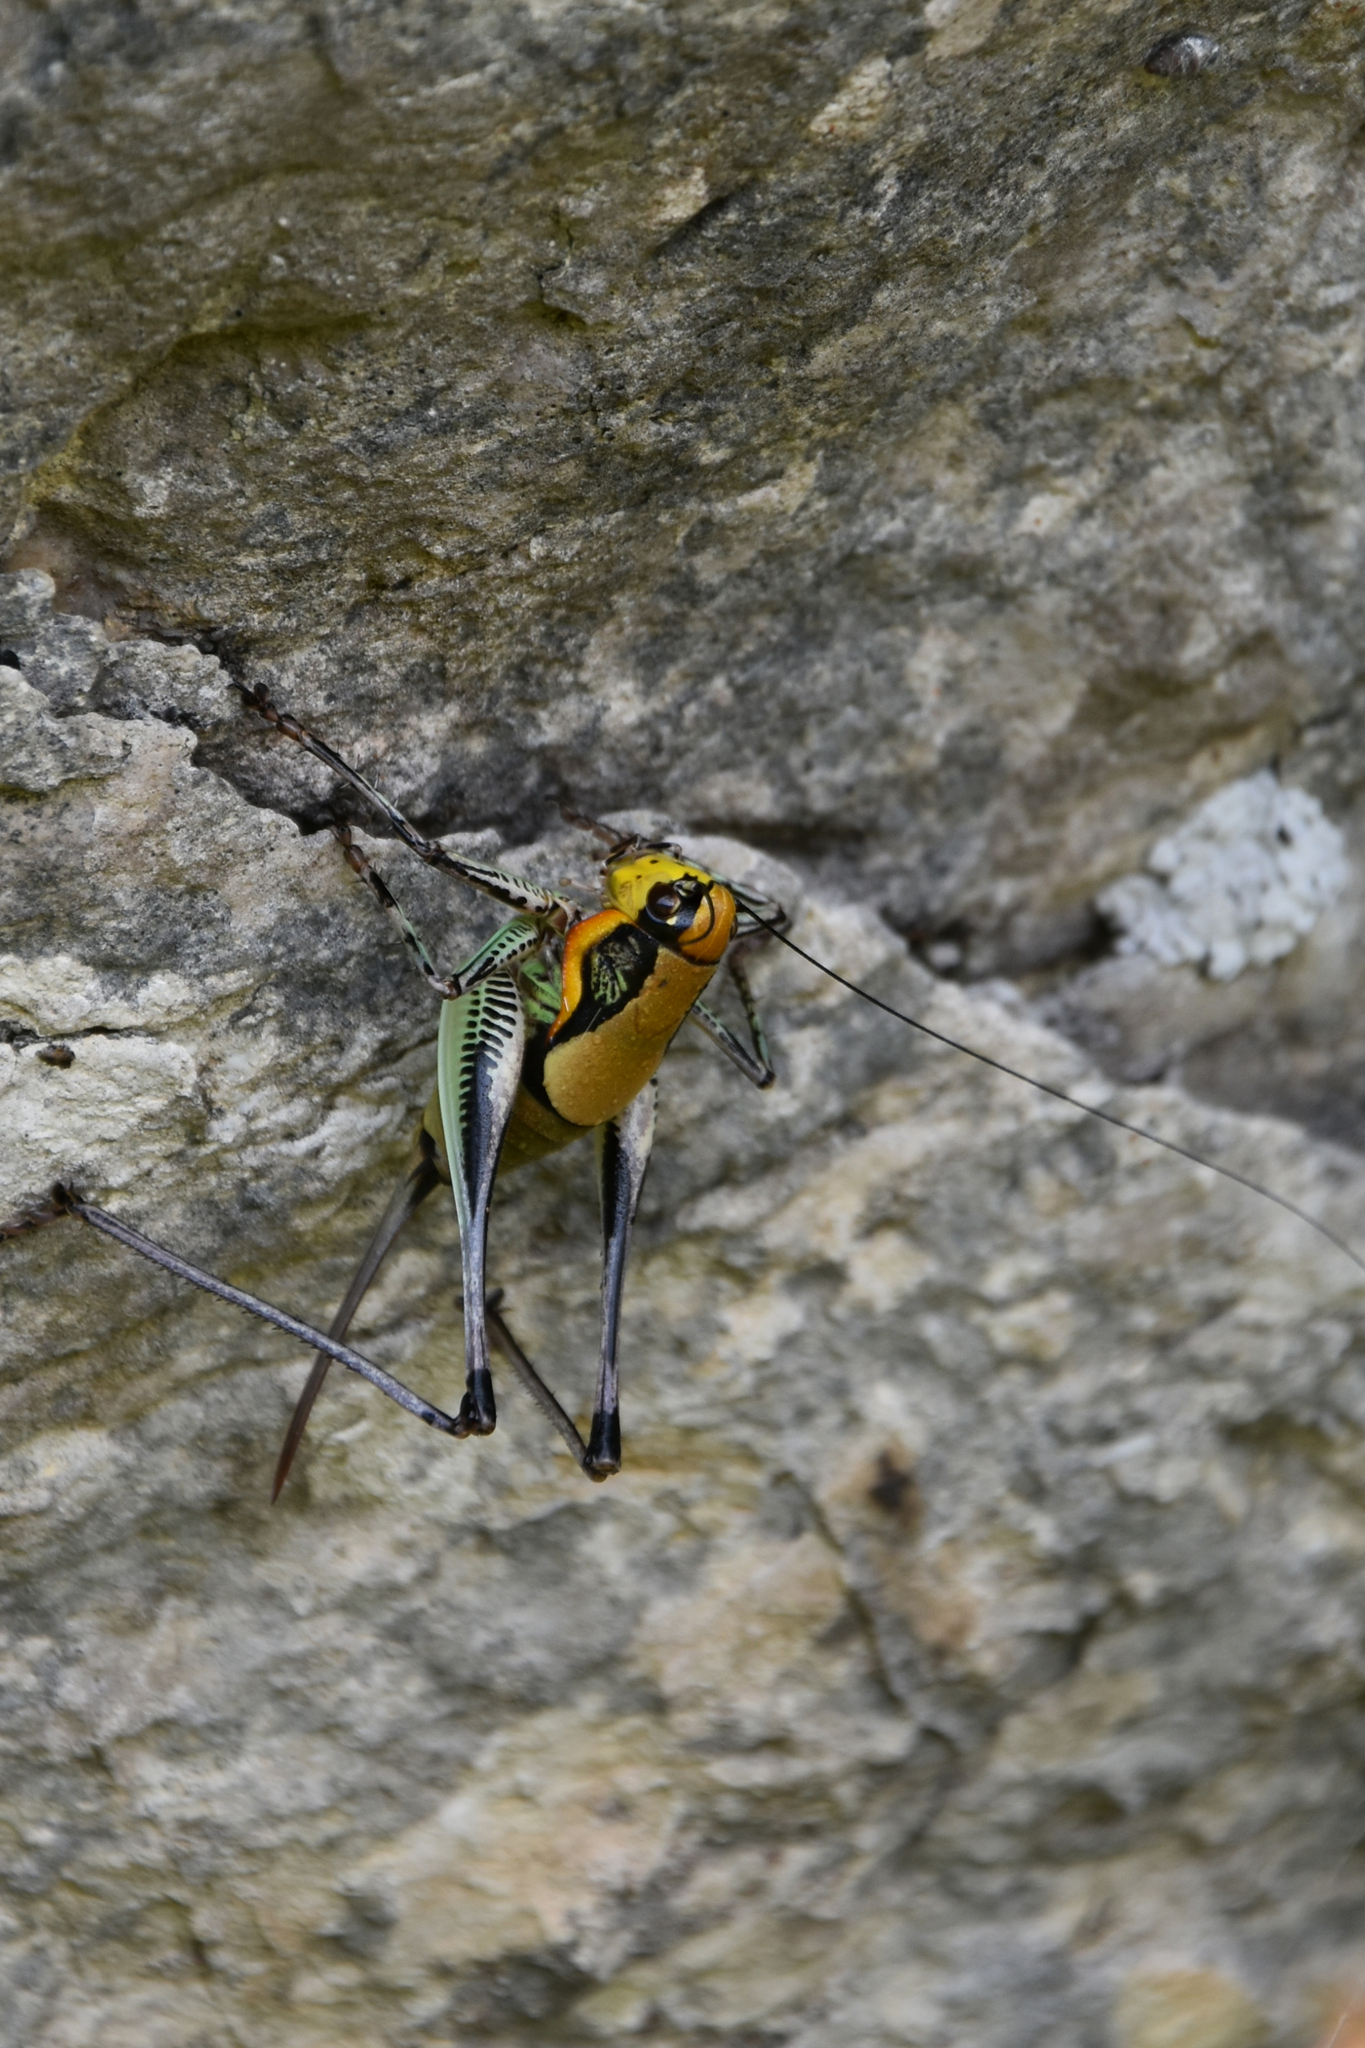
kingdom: Animalia
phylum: Arthropoda
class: Insecta
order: Orthoptera
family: Tettigoniidae
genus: Eupholidoptera
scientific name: Eupholidoptera schmidti
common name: Schmidt's marbled bush-cricket
